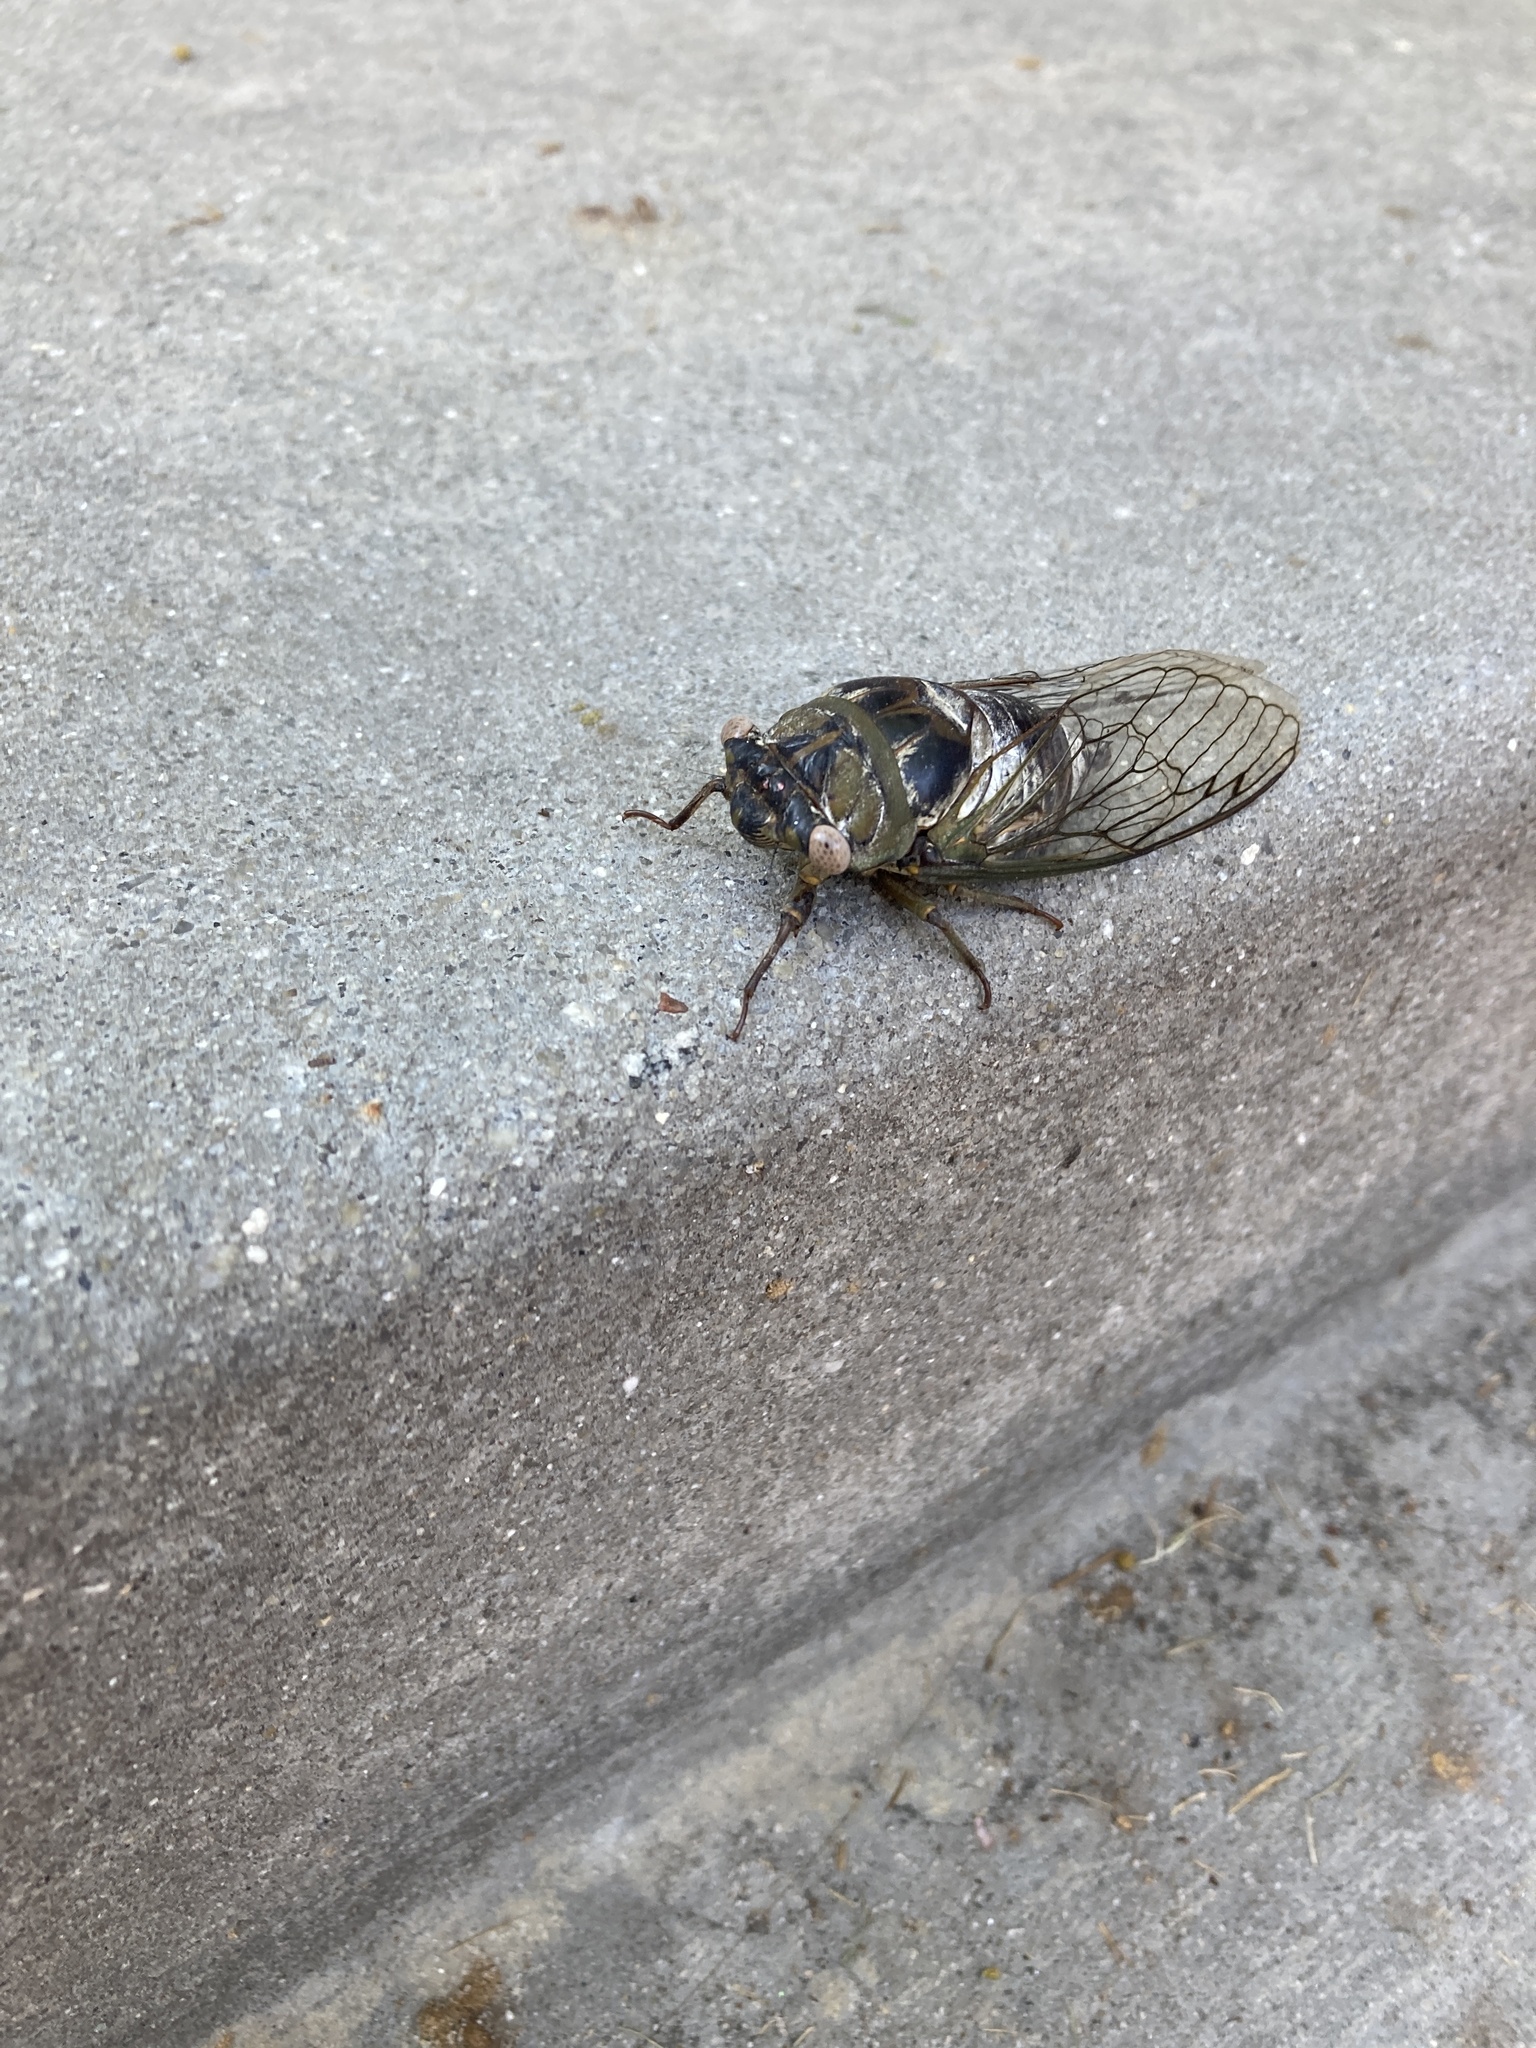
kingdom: Animalia
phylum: Arthropoda
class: Insecta
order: Hemiptera
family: Cicadidae
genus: Diceroprocta
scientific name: Diceroprocta grossa
